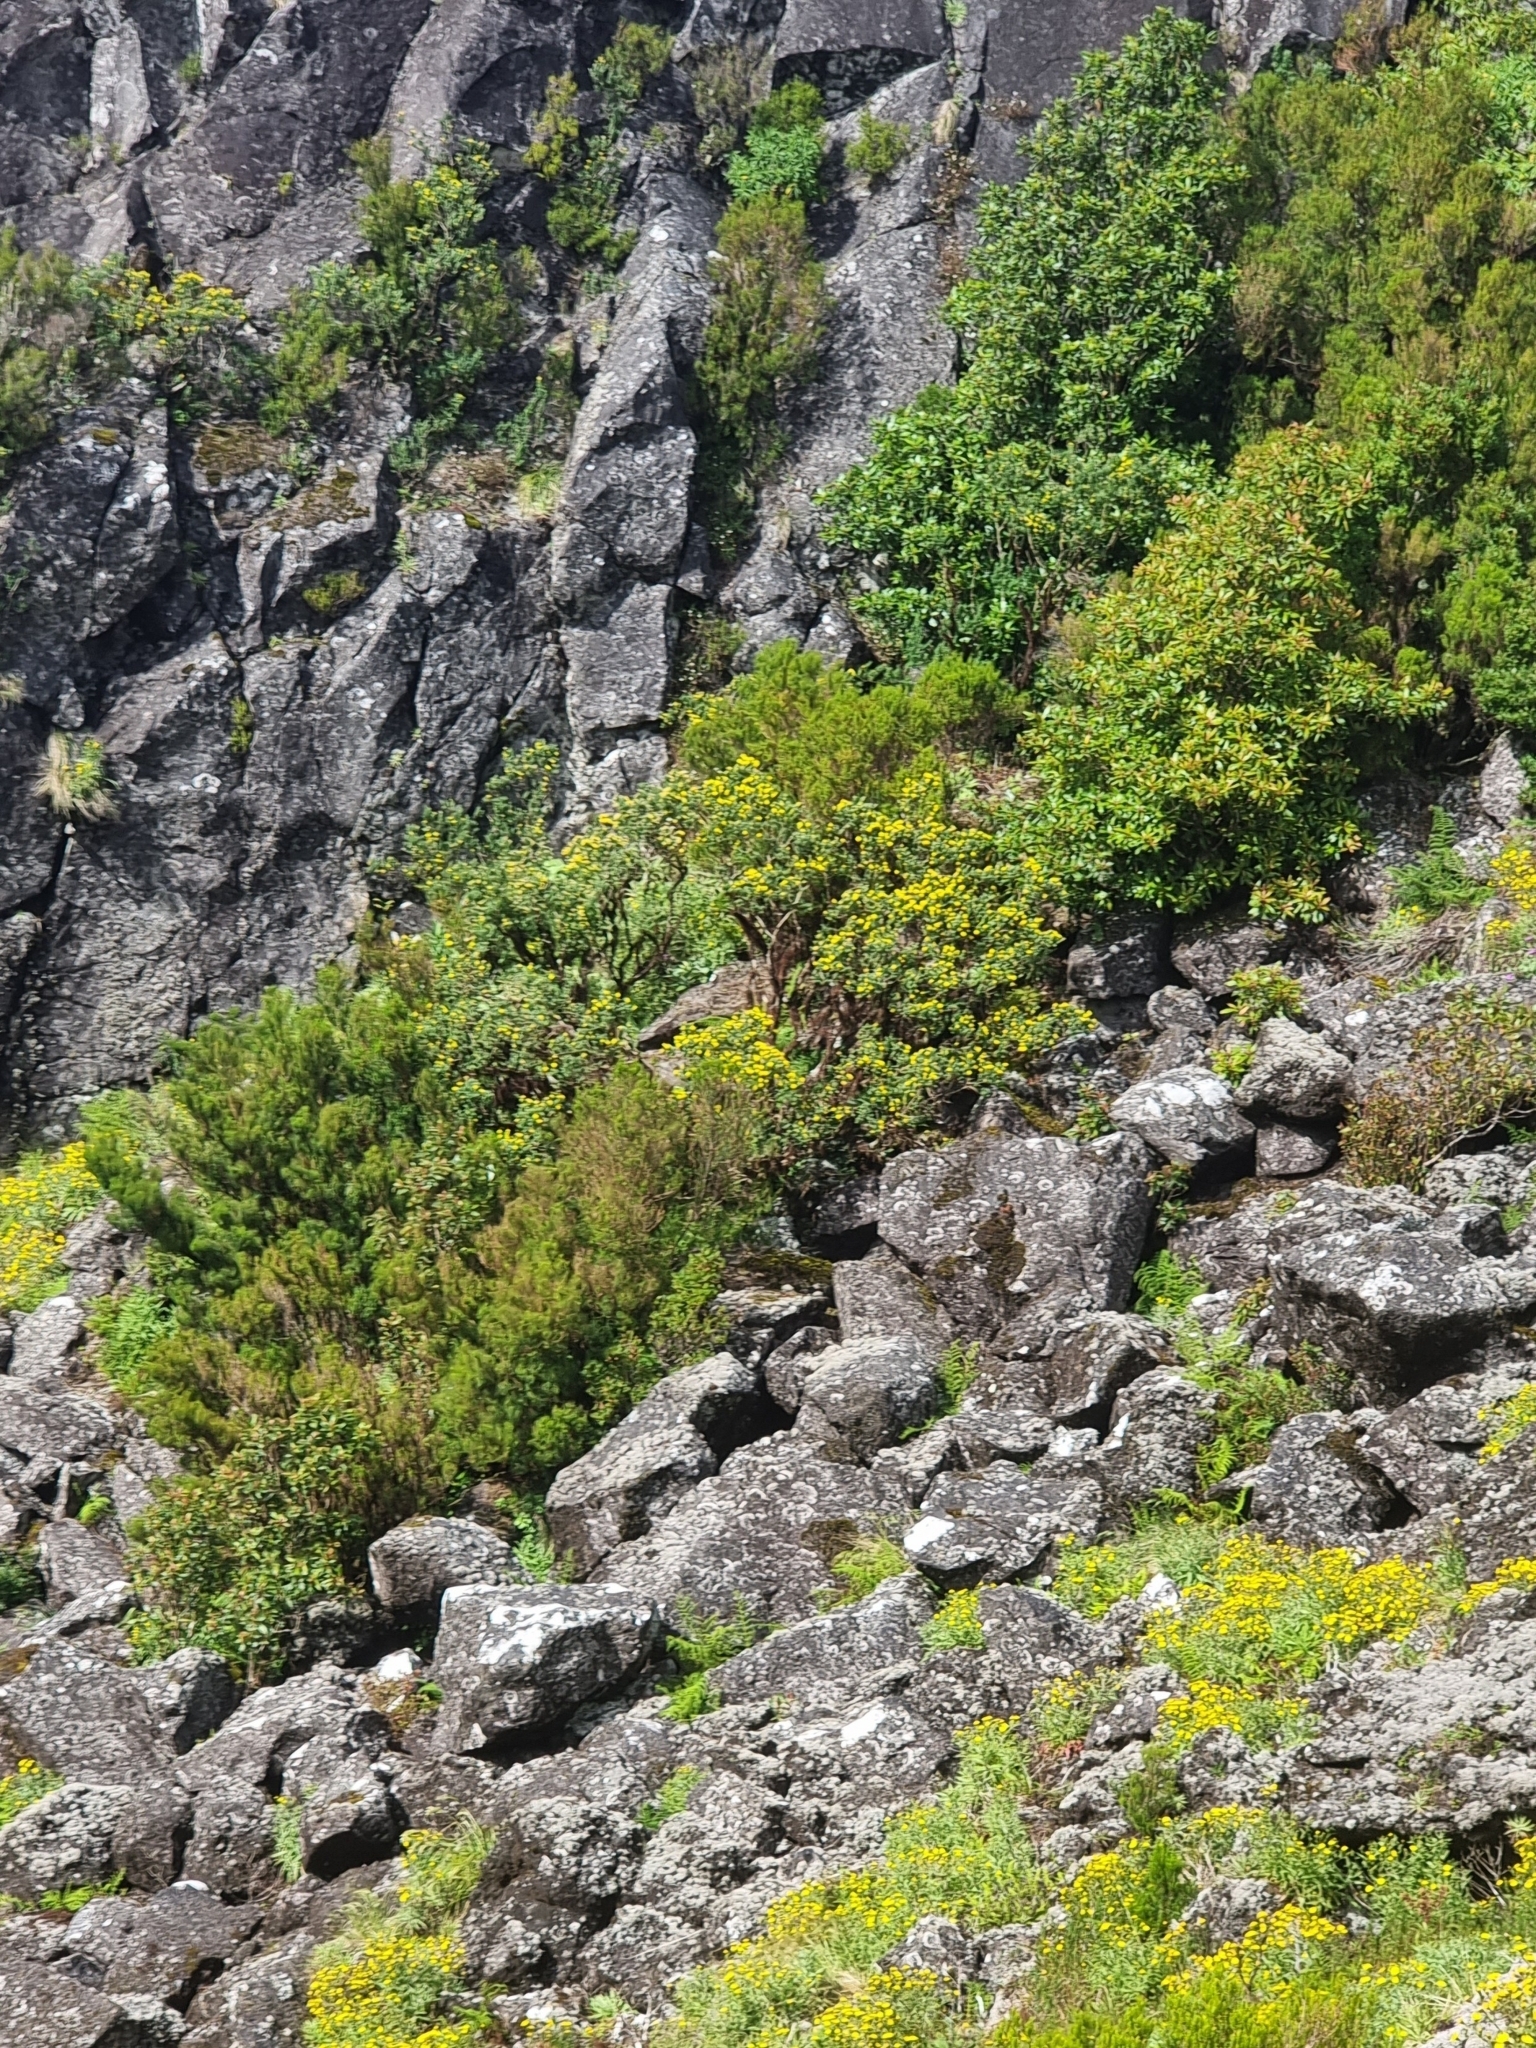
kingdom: Plantae
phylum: Tracheophyta
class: Magnoliopsida
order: Fabales
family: Fabaceae
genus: Genista
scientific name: Genista maderensis
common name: Madeira dyer's greenweed
